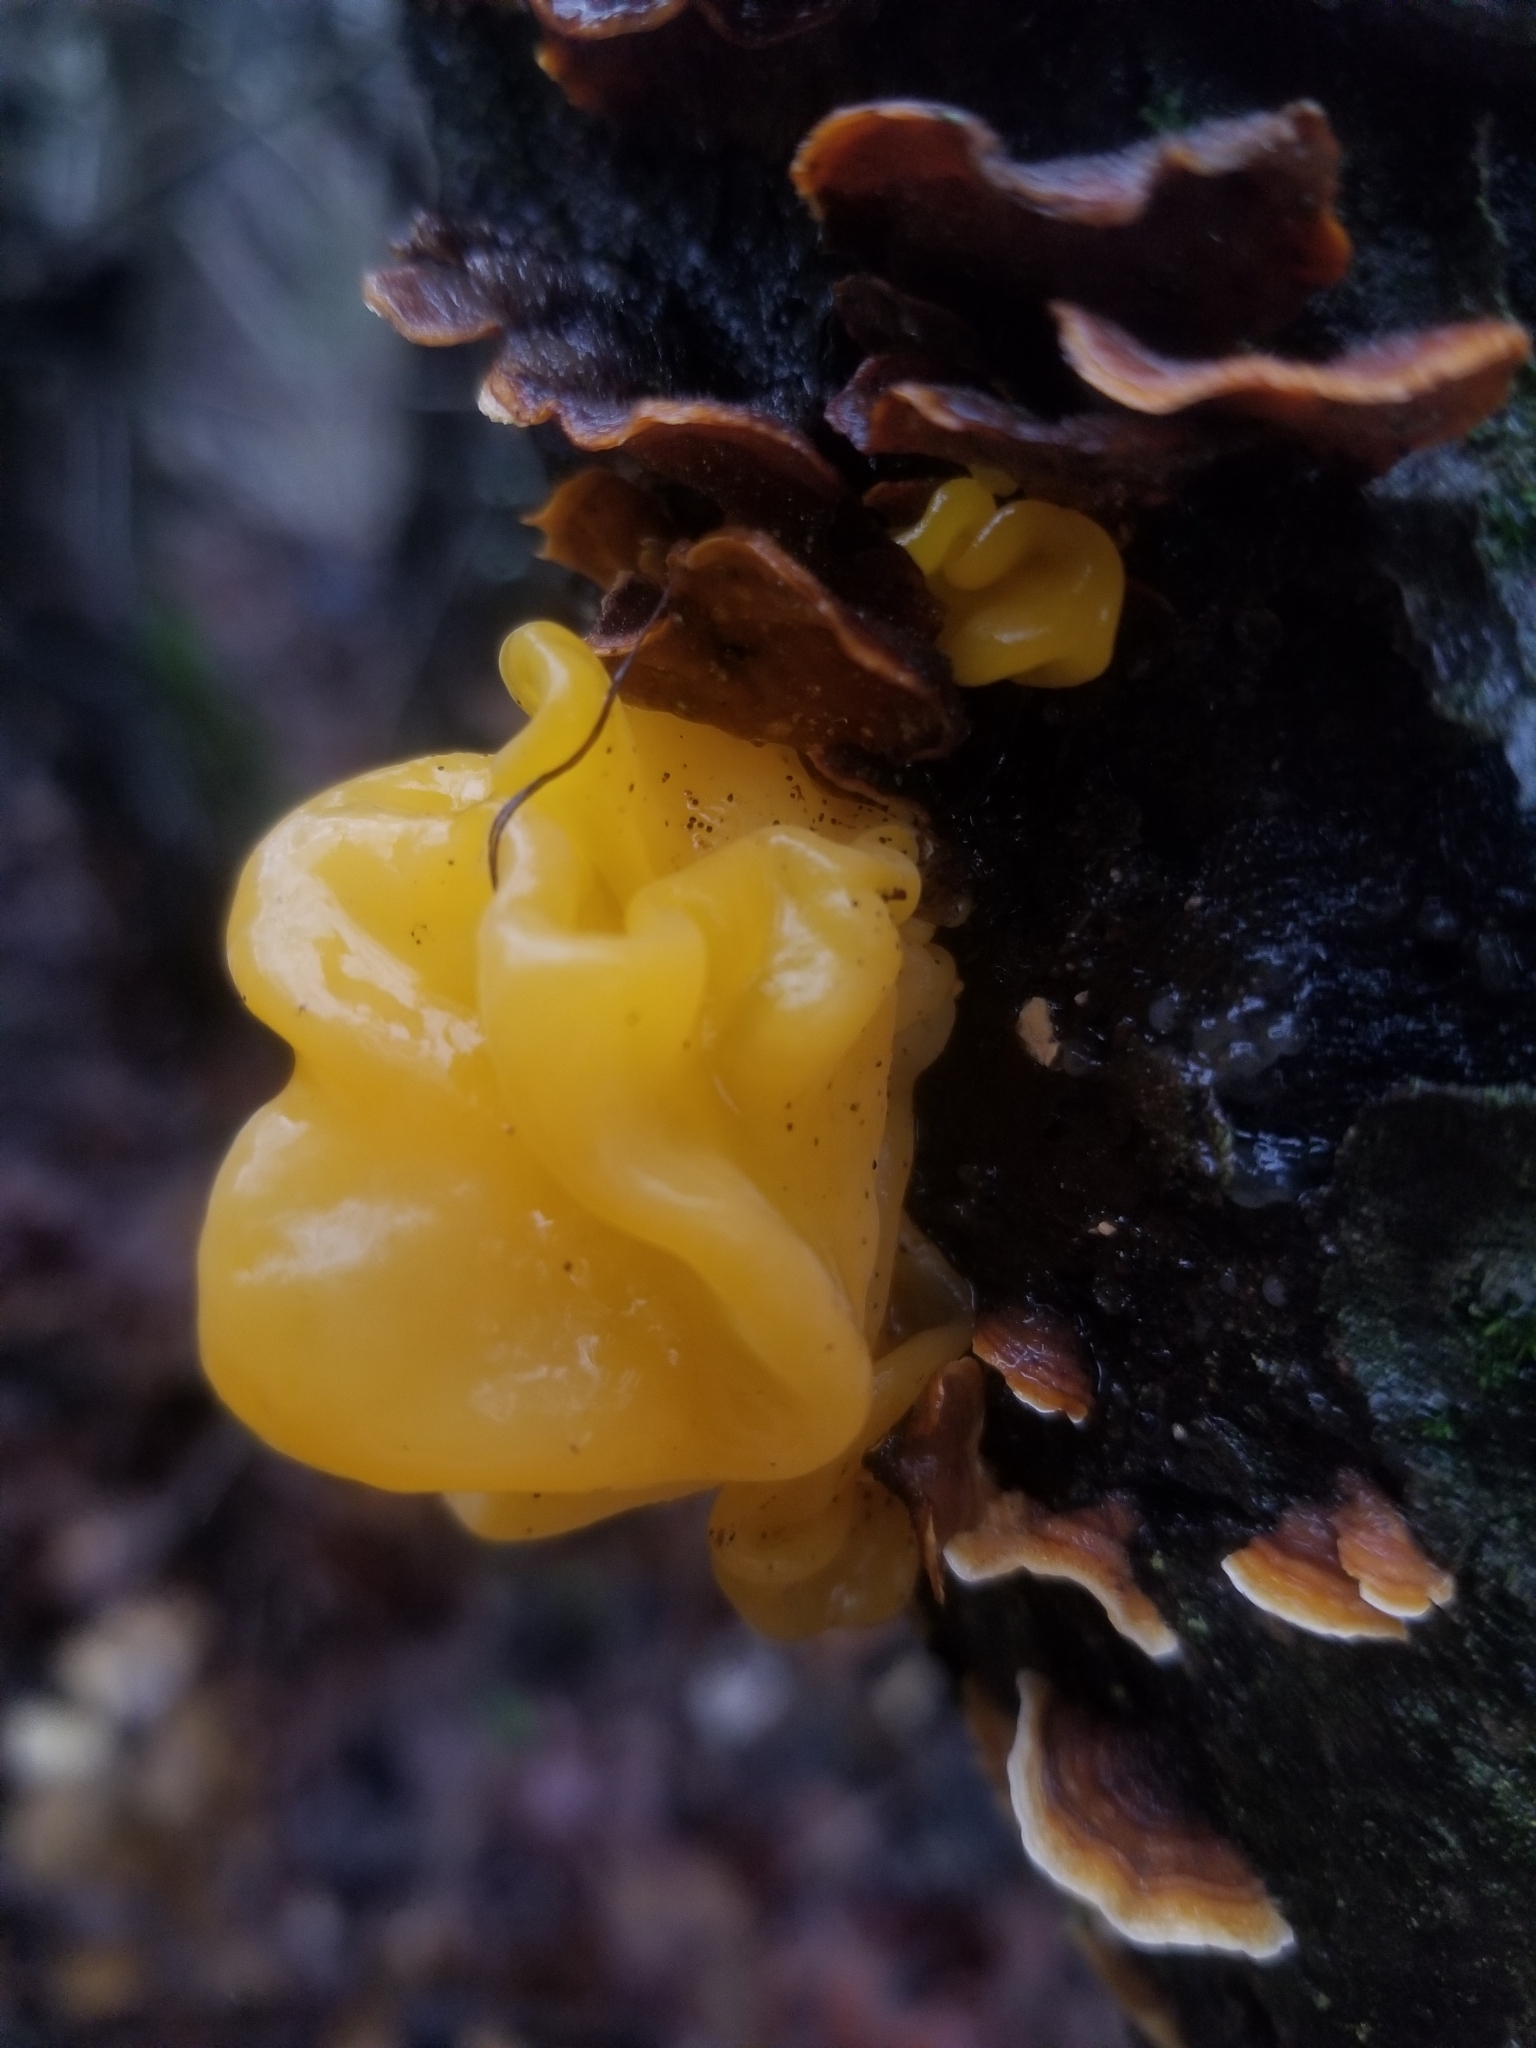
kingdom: Fungi
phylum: Basidiomycota
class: Tremellomycetes
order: Tremellales
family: Naemateliaceae
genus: Naematelia
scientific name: Naematelia aurantia
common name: Golden ear
